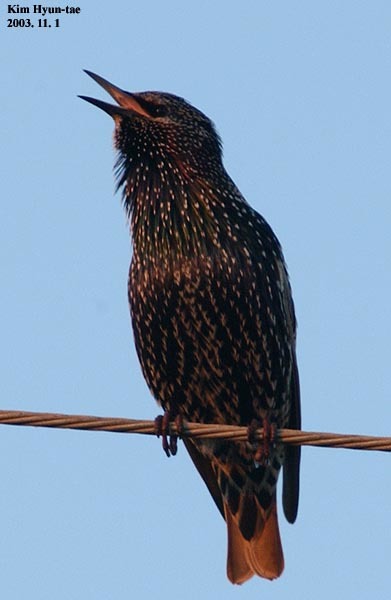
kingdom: Animalia
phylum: Chordata
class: Aves
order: Passeriformes
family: Sturnidae
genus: Sturnus
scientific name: Sturnus vulgaris
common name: Common starling
